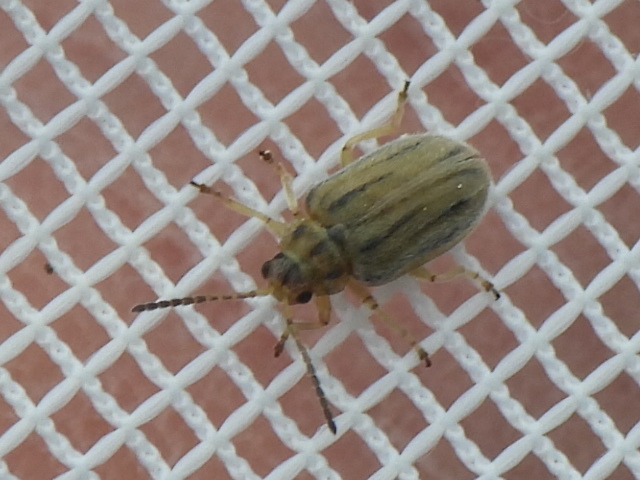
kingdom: Animalia
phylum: Arthropoda
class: Insecta
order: Coleoptera
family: Chrysomelidae
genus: Ophraella
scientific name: Ophraella communa
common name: Ragweed leaf beetle
